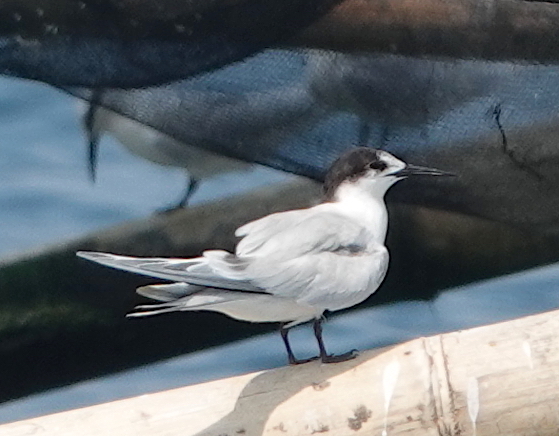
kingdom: Animalia
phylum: Chordata
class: Aves
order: Charadriiformes
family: Laridae
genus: Sterna
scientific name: Sterna hirundo
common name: Common tern
